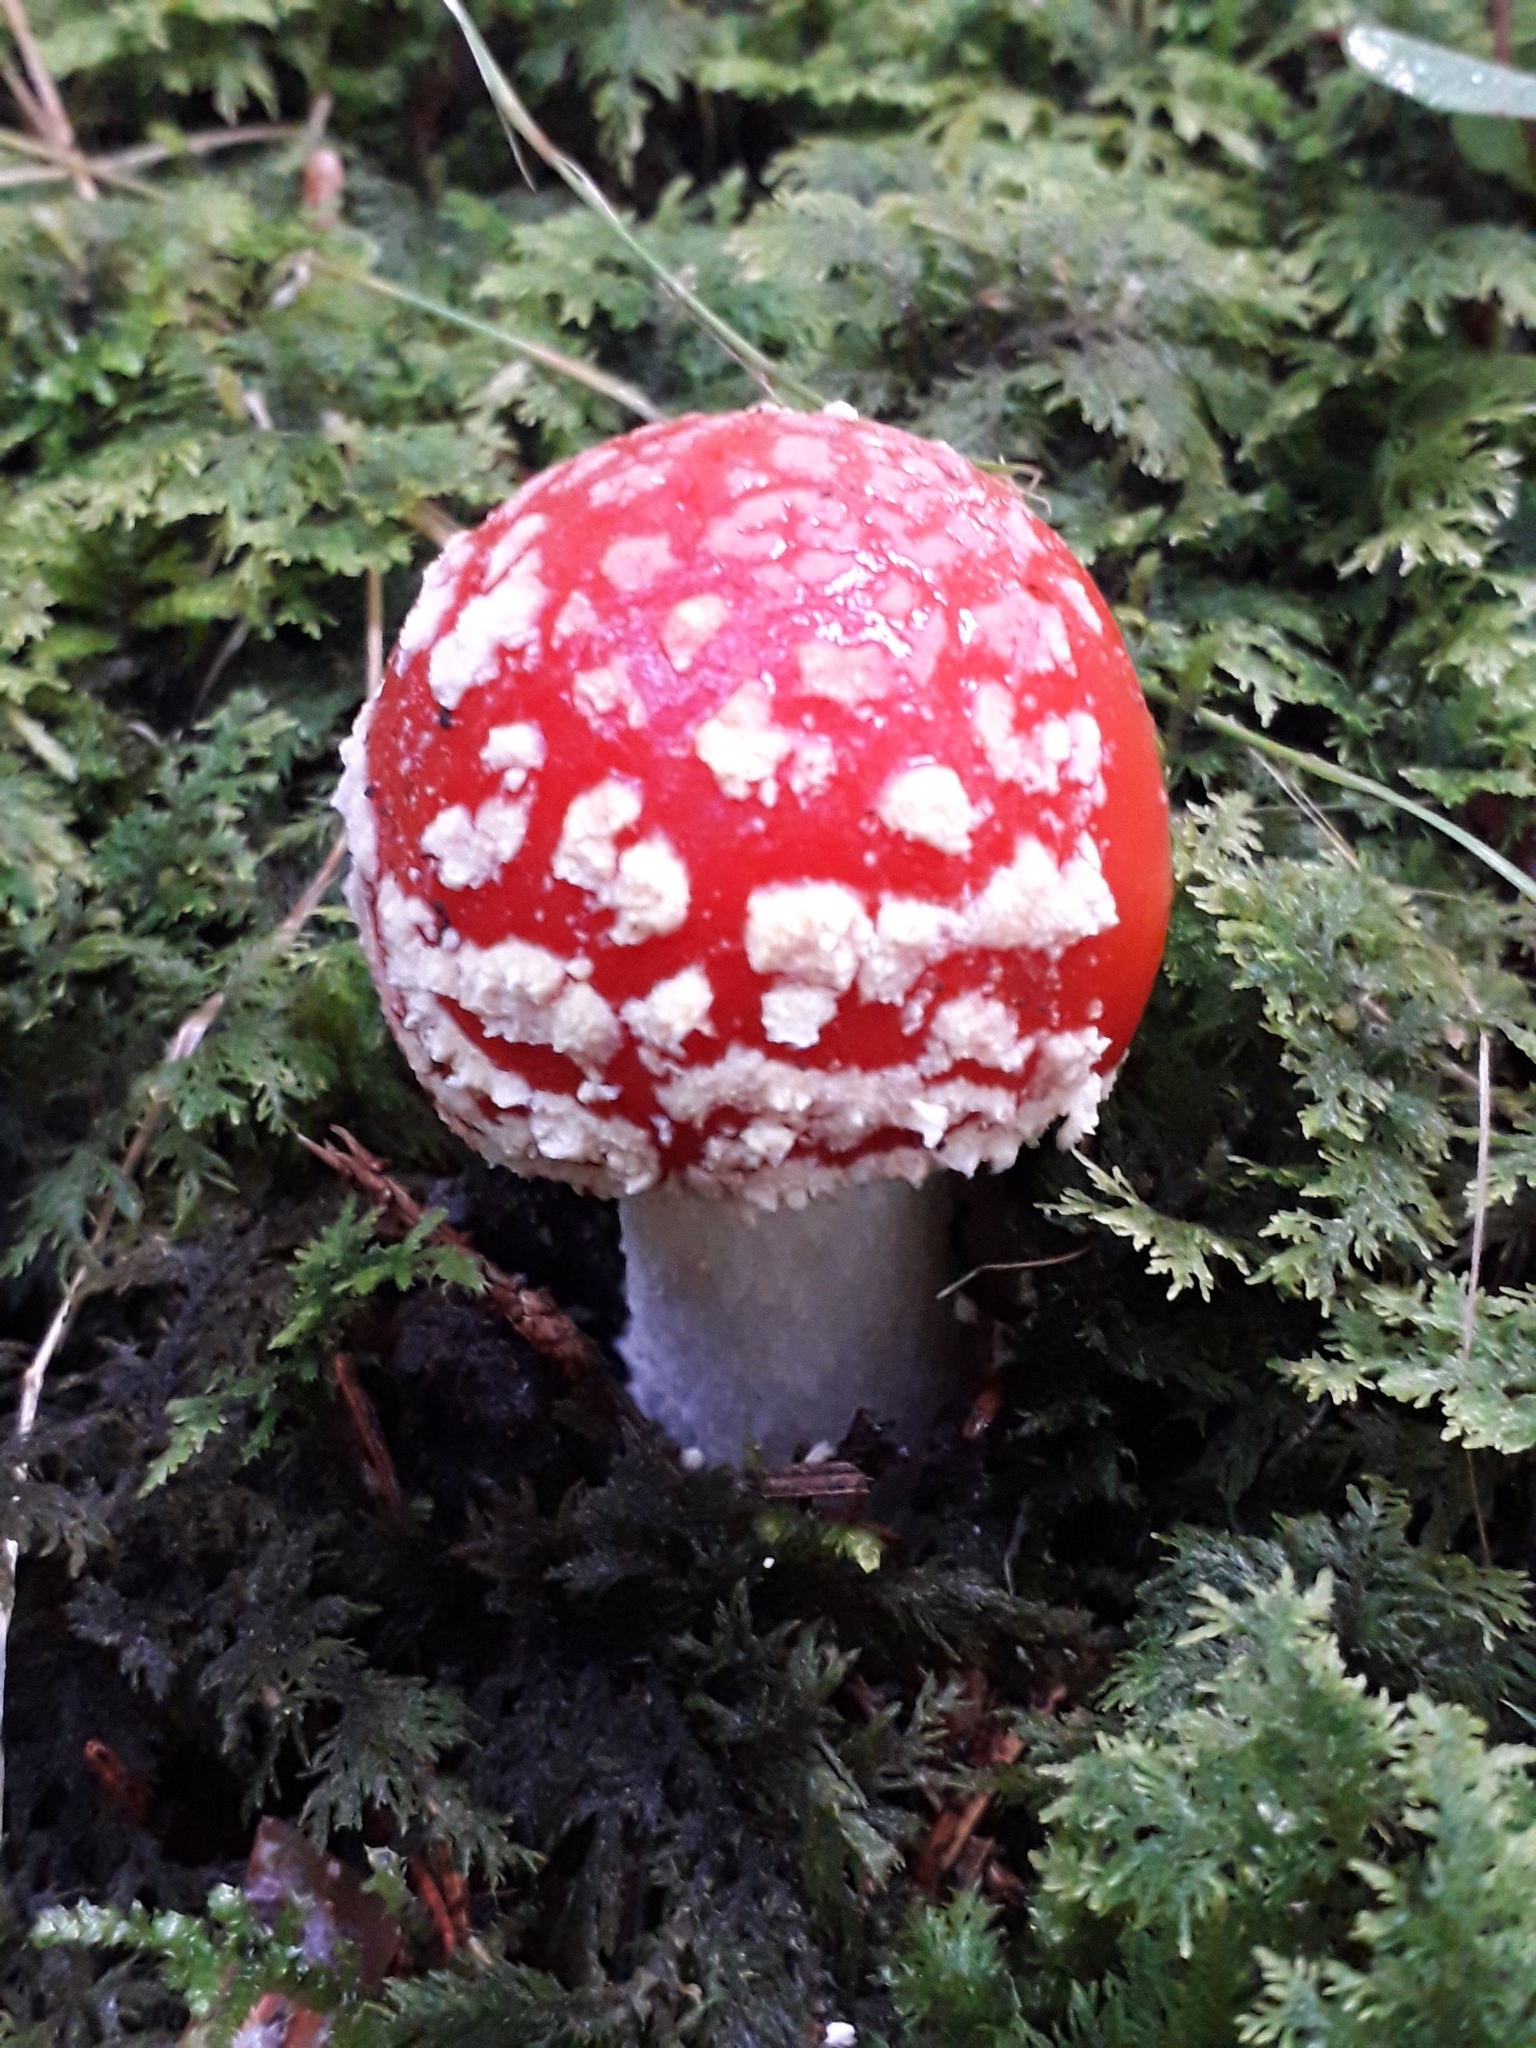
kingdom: Fungi
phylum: Basidiomycota
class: Agaricomycetes
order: Agaricales
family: Amanitaceae
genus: Amanita
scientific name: Amanita muscaria
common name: Fly agaric
